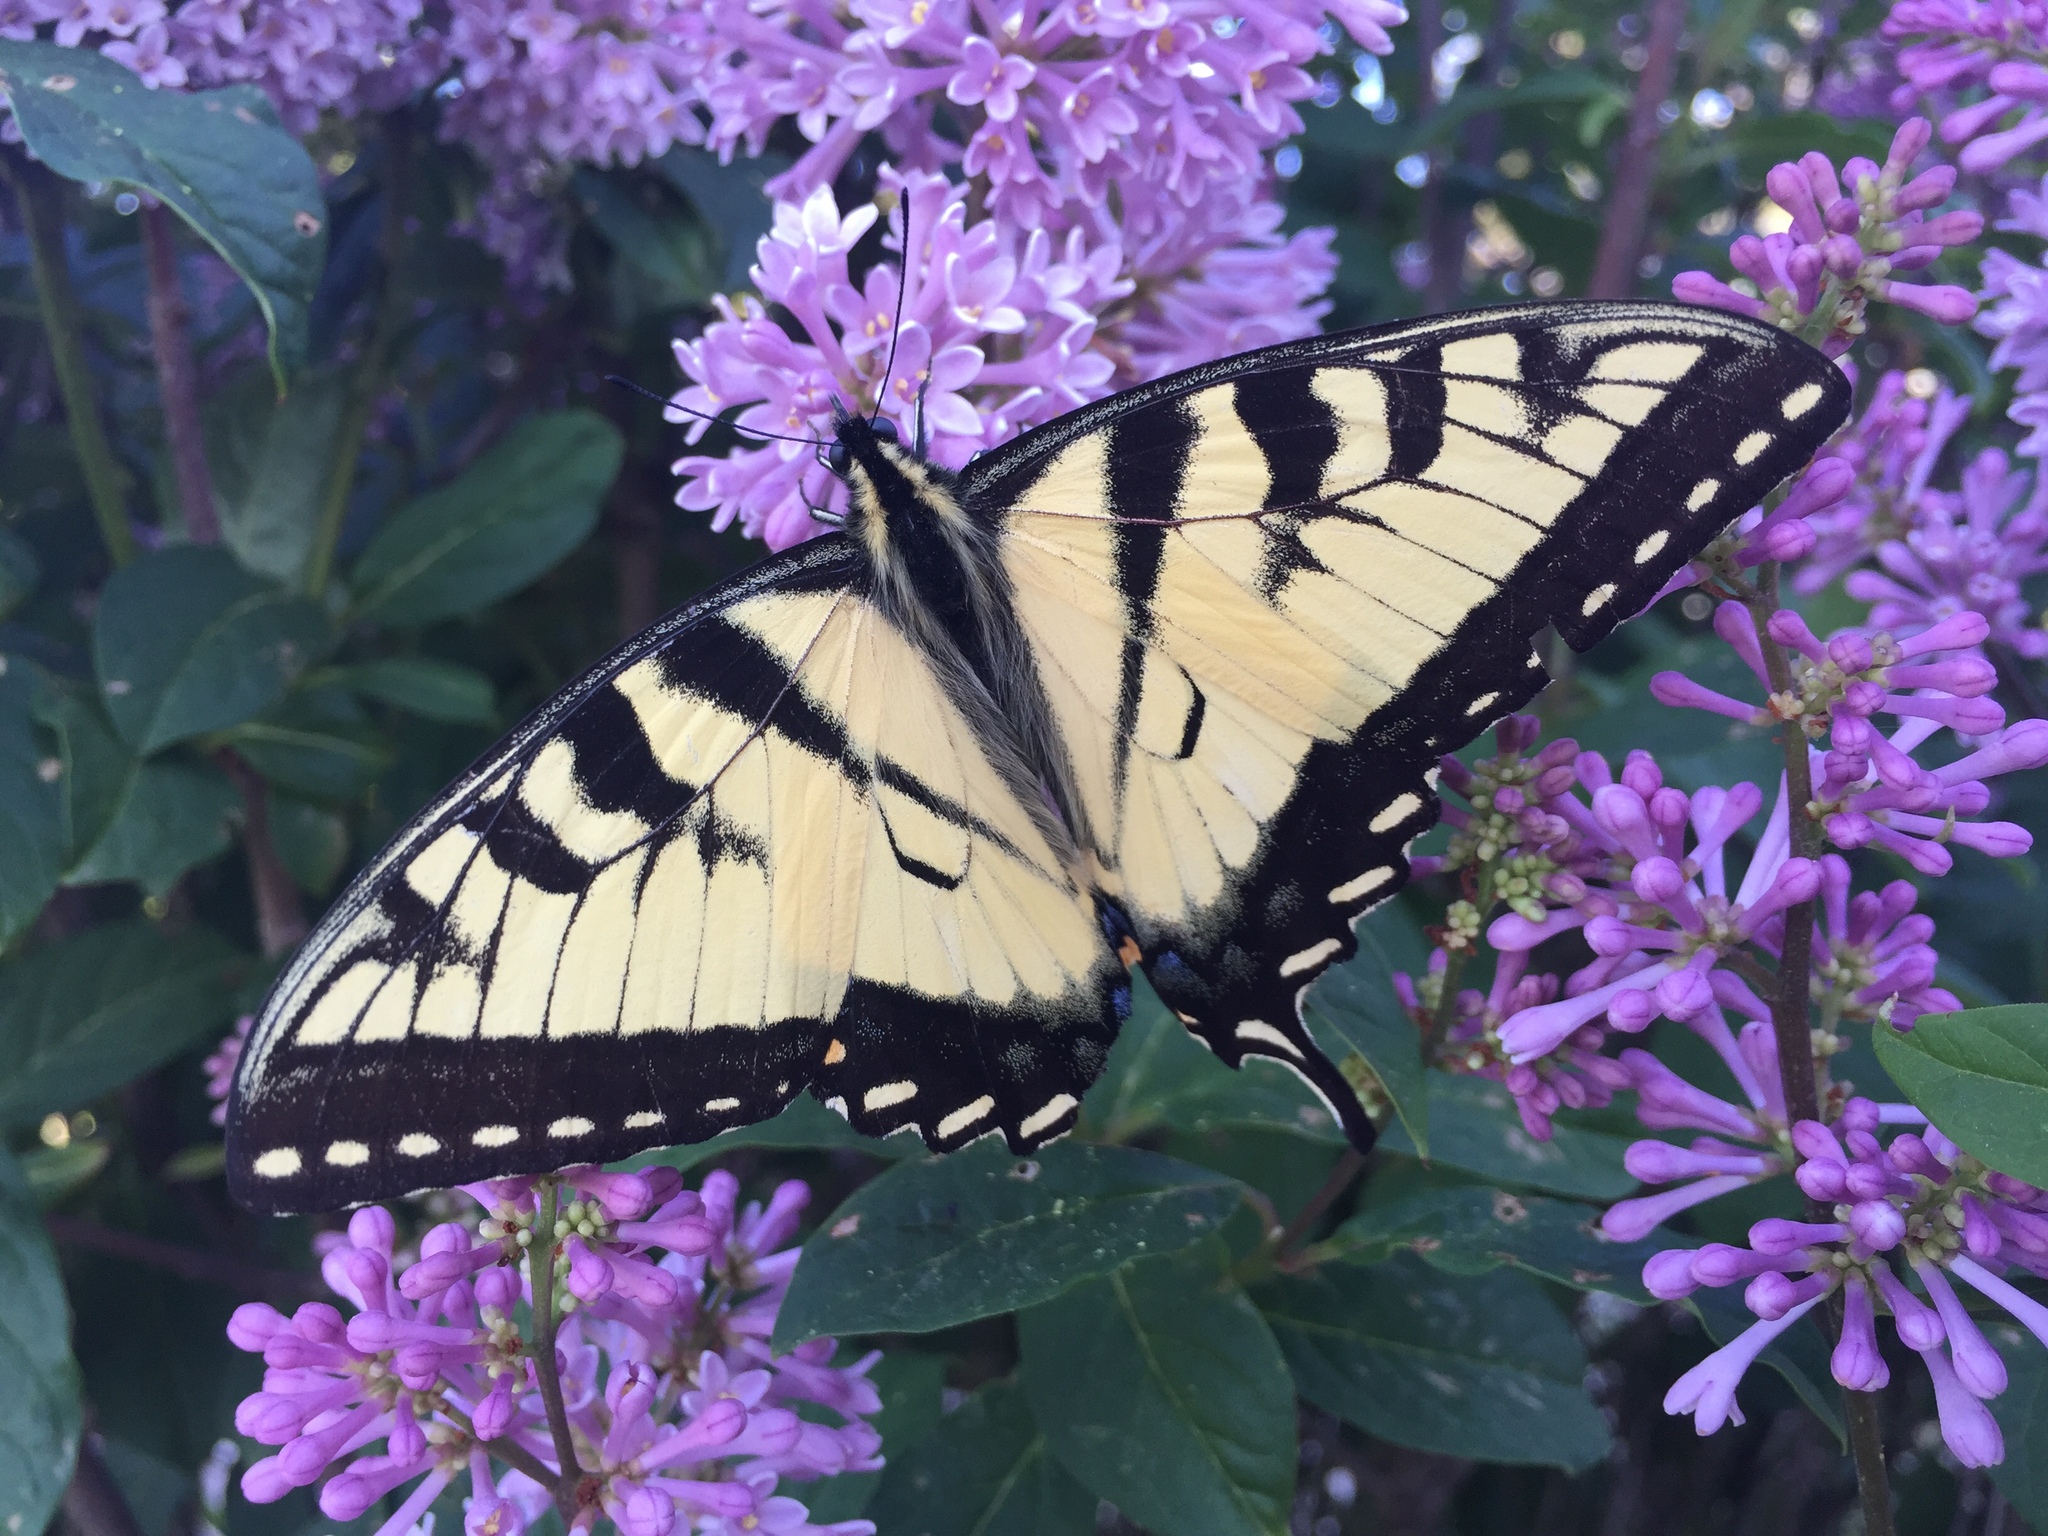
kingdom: Animalia
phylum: Arthropoda
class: Insecta
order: Lepidoptera
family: Papilionidae
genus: Papilio
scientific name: Papilio glaucus
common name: Tiger swallowtail
